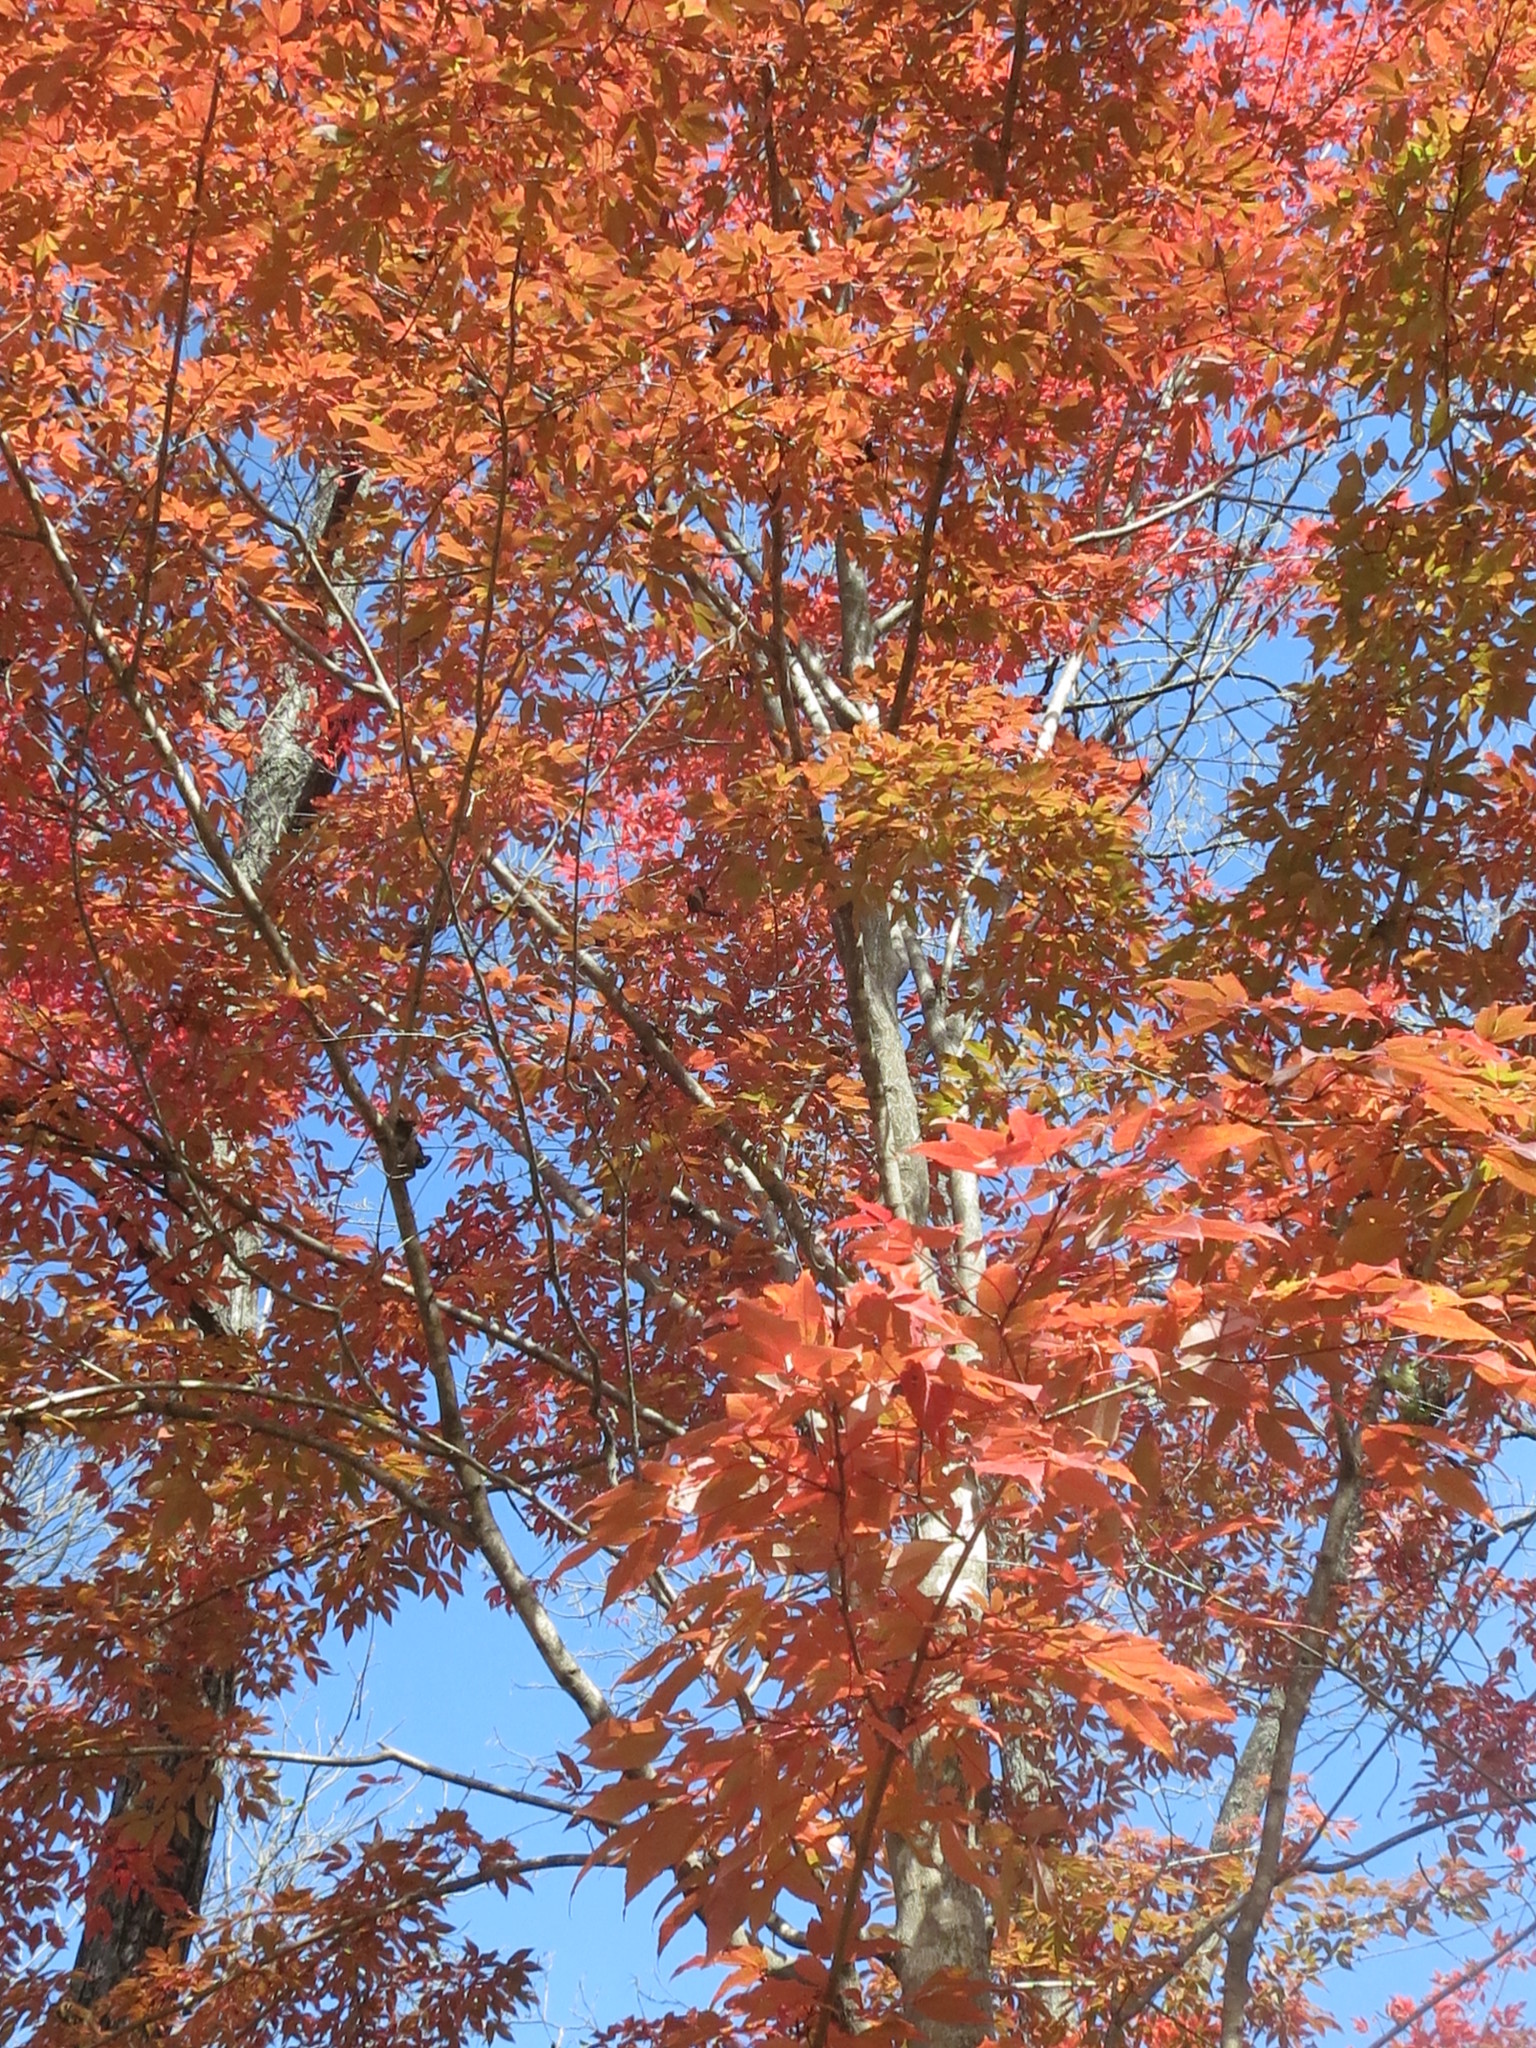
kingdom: Plantae
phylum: Tracheophyta
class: Magnoliopsida
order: Sapindales
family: Sapindaceae
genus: Acer
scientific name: Acer mandshuricum
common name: Manchurian maple
